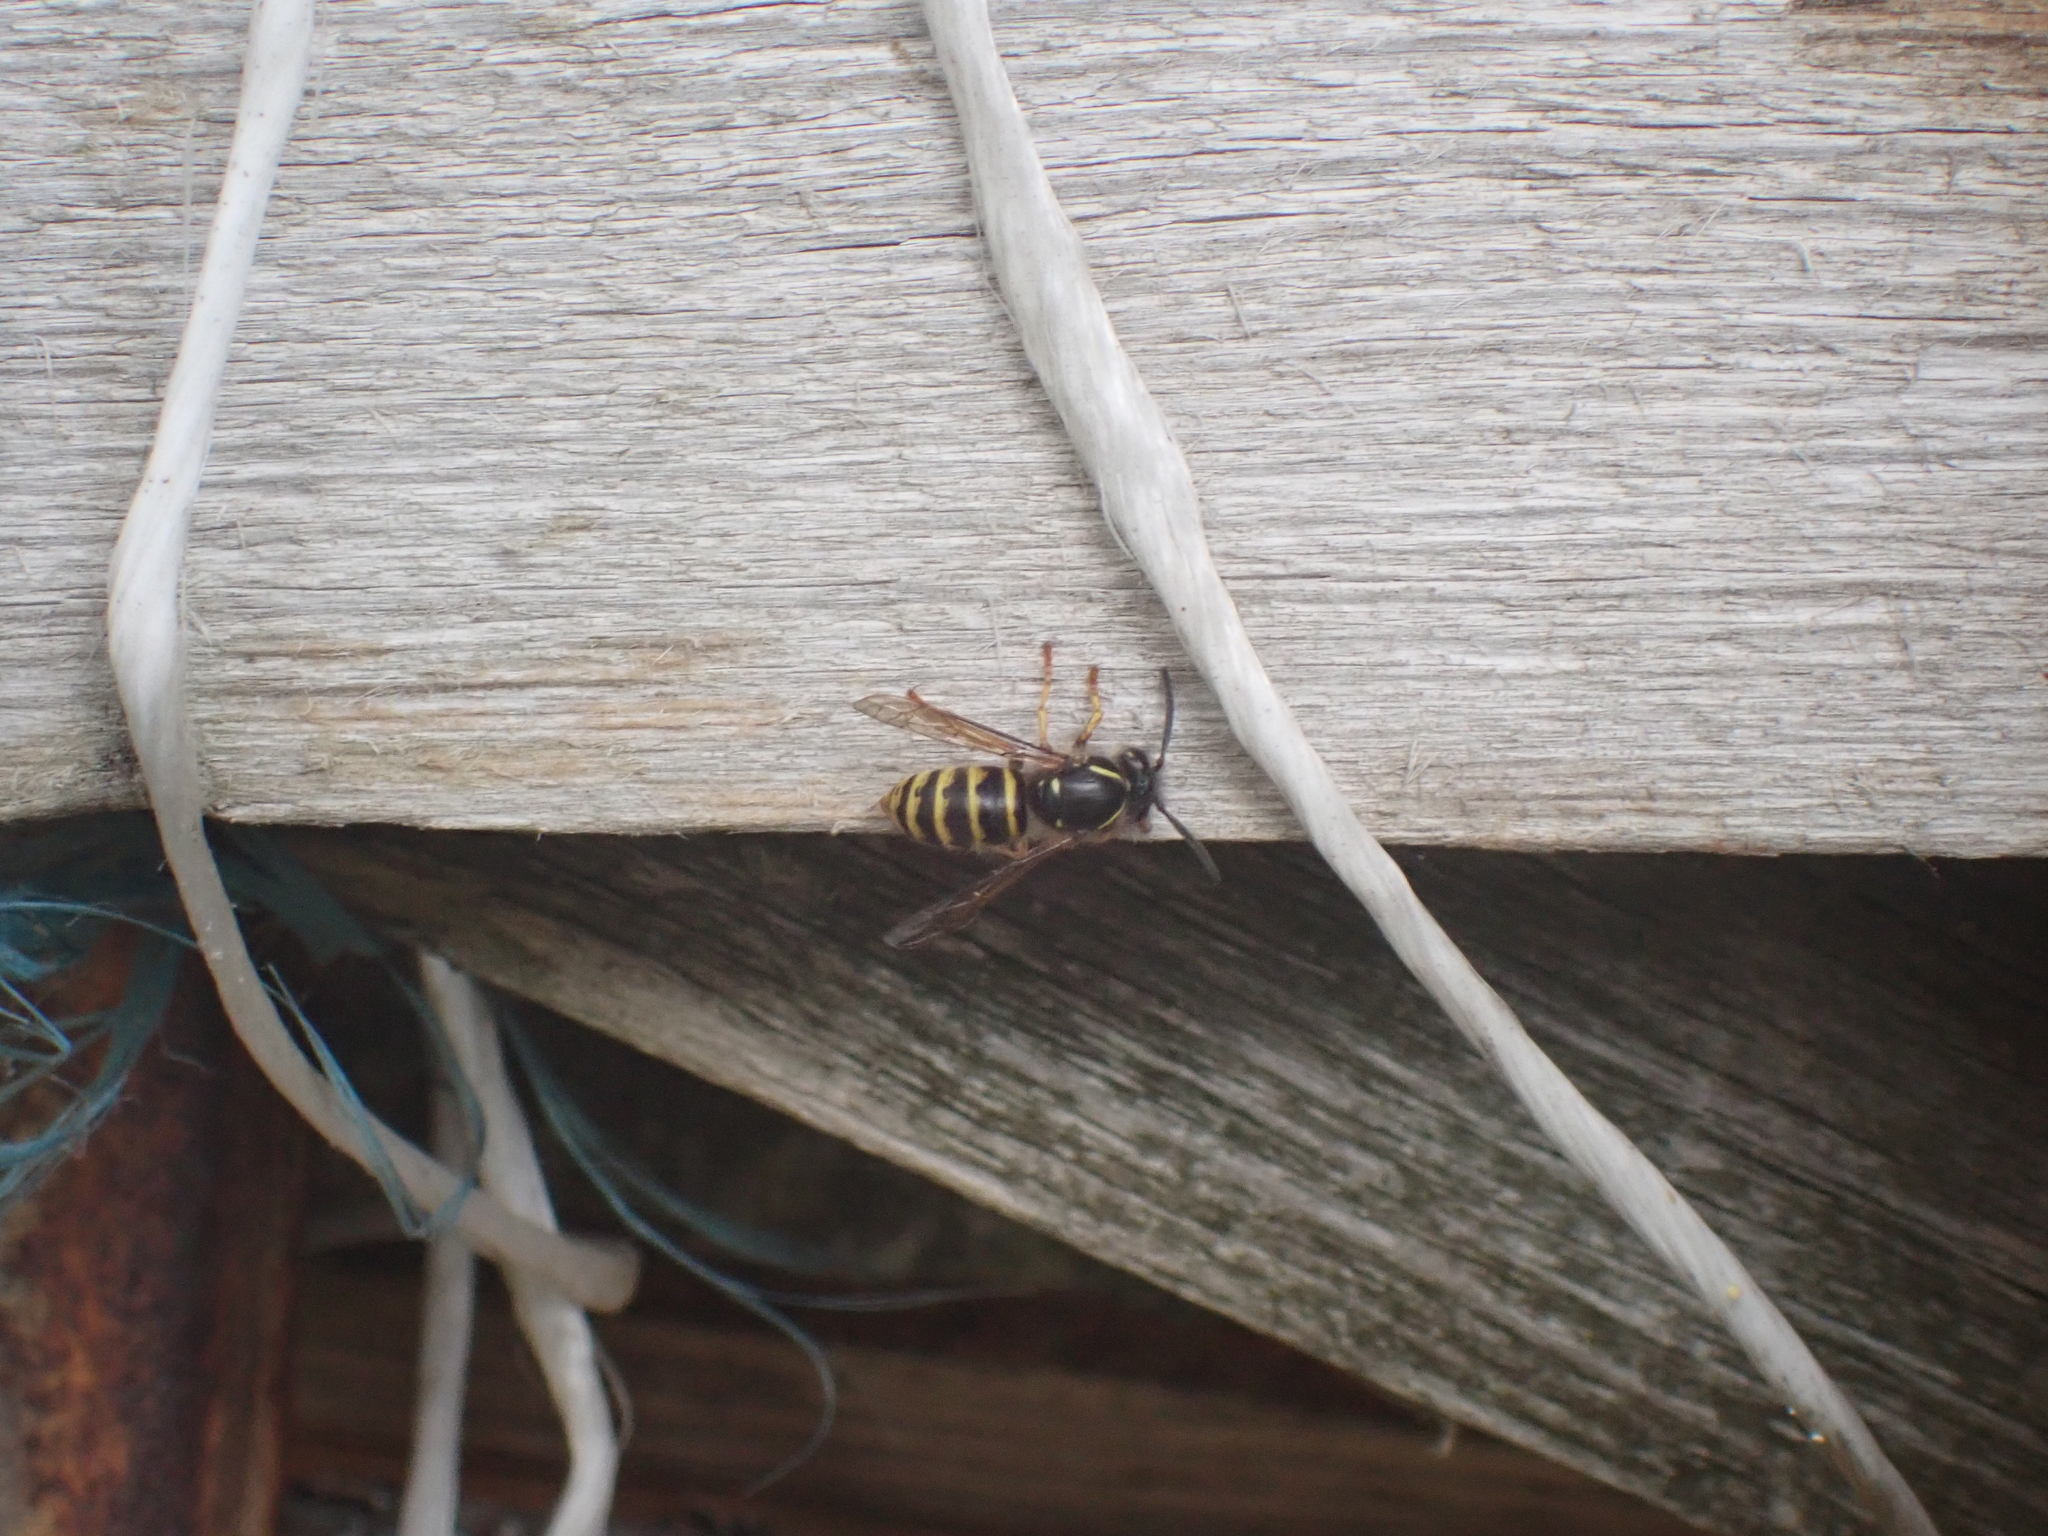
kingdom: Animalia
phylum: Arthropoda
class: Insecta
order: Hymenoptera
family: Vespidae
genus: Dolichovespula
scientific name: Dolichovespula saxonica
